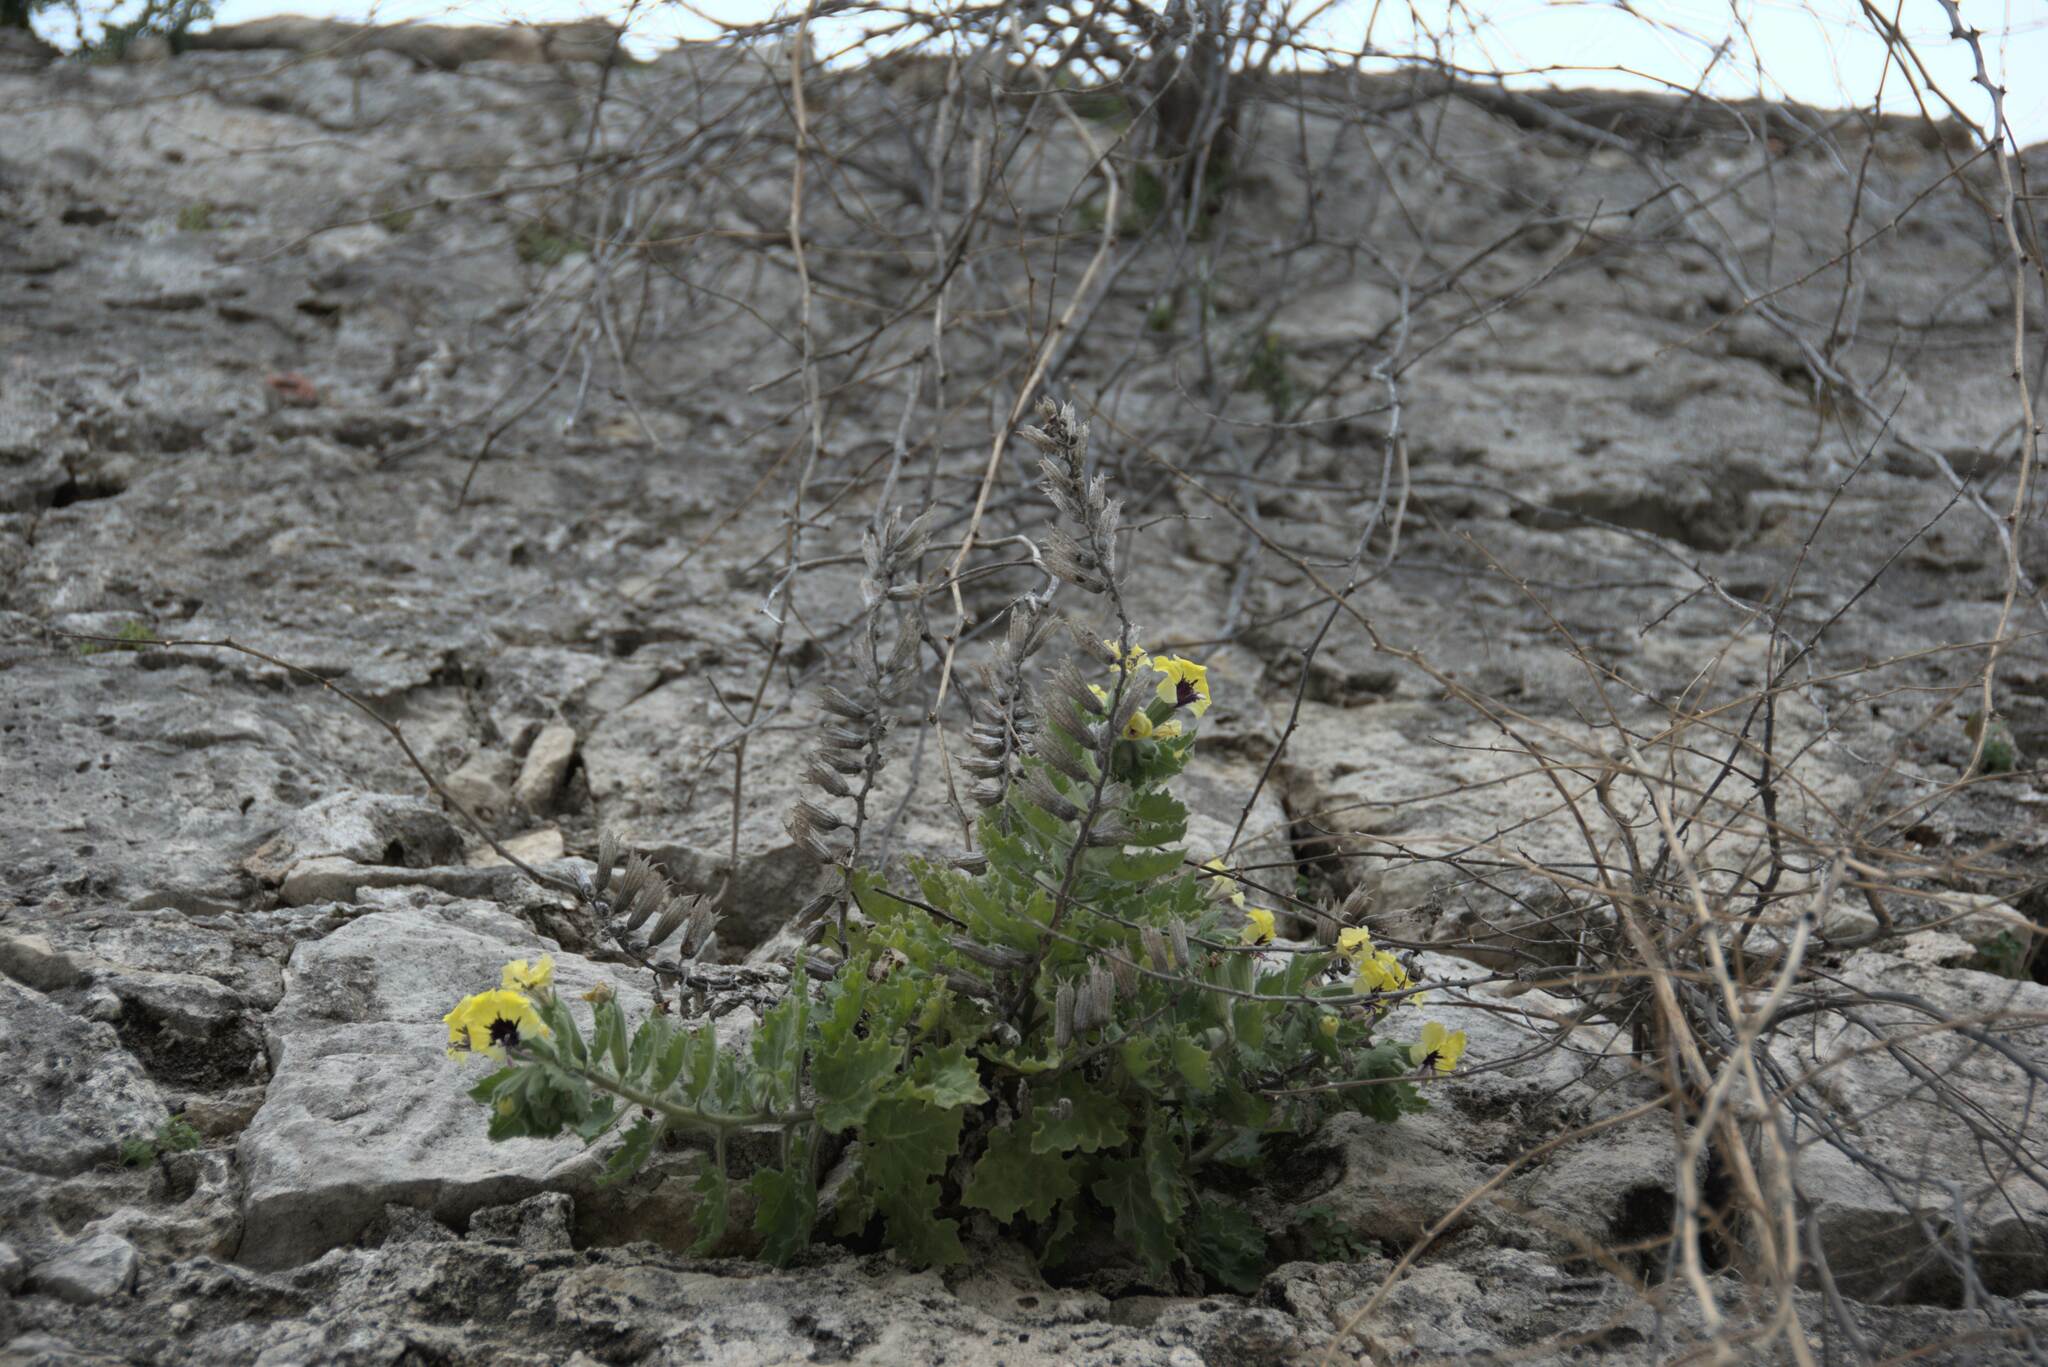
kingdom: Plantae
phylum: Tracheophyta
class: Magnoliopsida
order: Solanales
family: Solanaceae
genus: Hyoscyamus
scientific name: Hyoscyamus aureus
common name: Golden henbane
